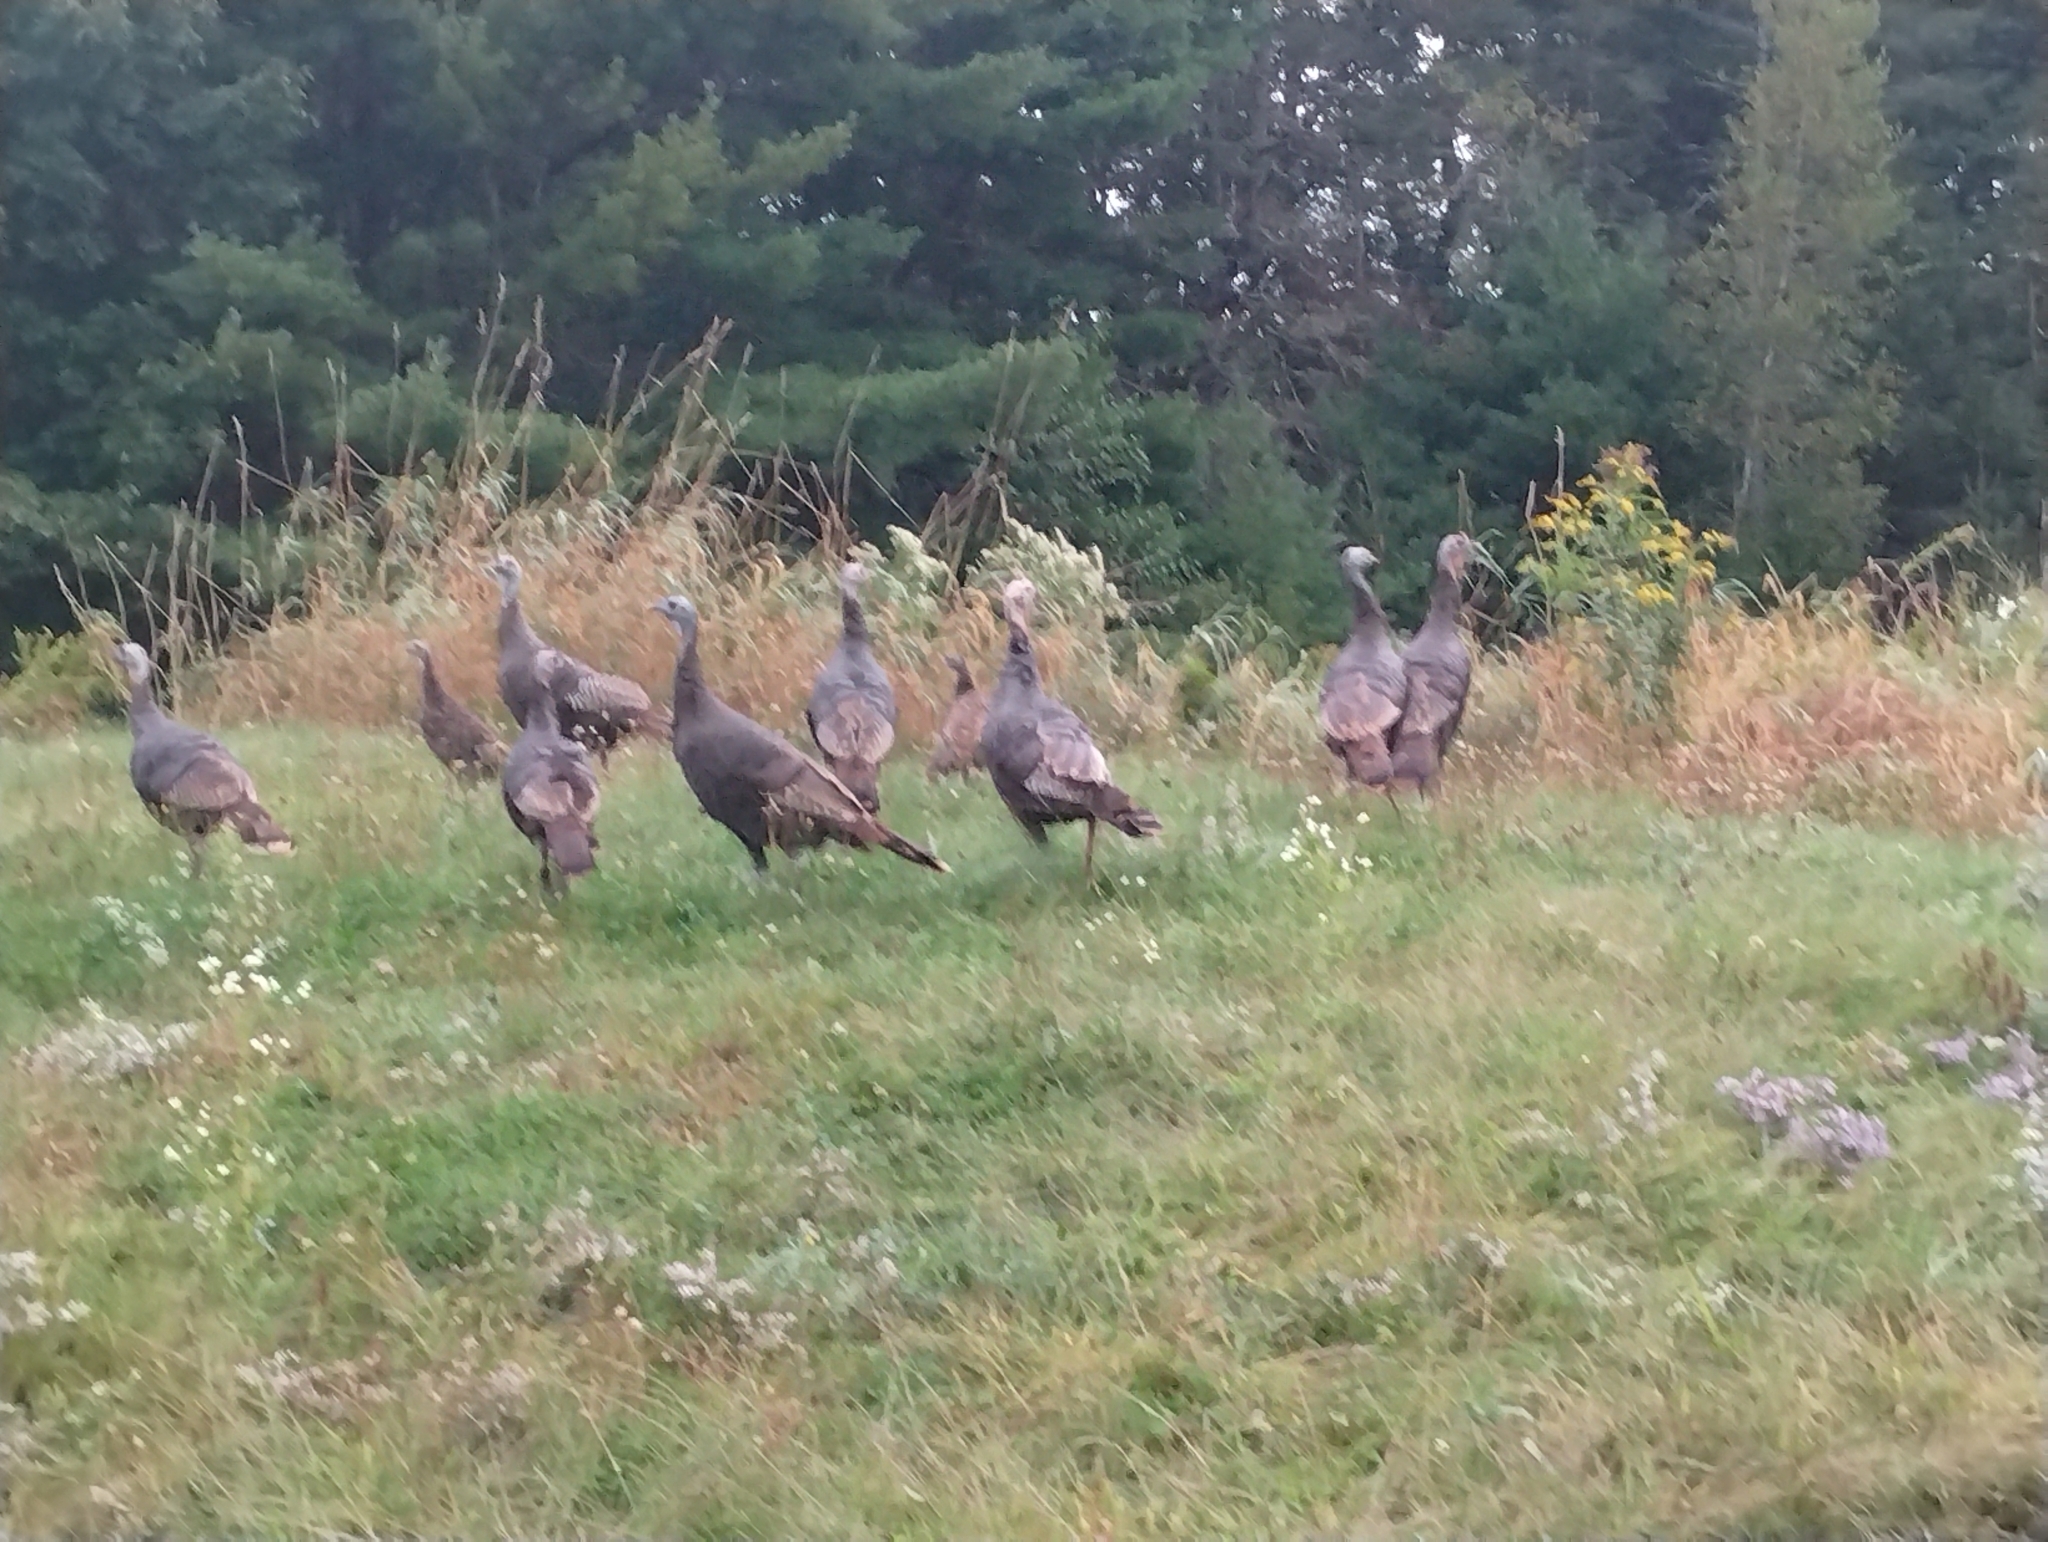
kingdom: Animalia
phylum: Chordata
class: Aves
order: Galliformes
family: Phasianidae
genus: Meleagris
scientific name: Meleagris gallopavo
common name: Wild turkey
